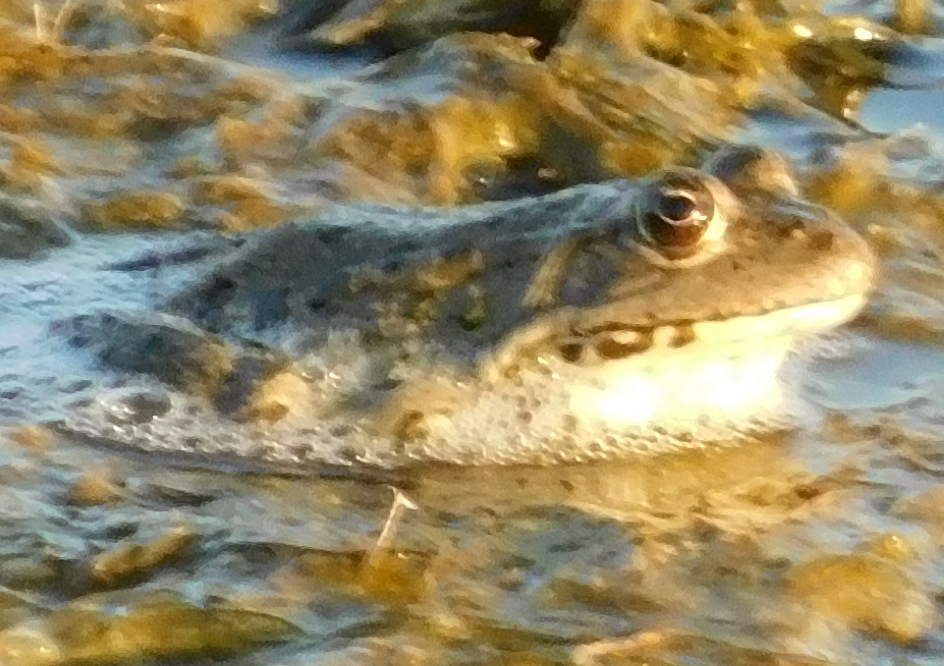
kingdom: Animalia
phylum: Chordata
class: Amphibia
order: Anura
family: Ranidae
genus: Pelophylax
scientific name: Pelophylax ridibundus
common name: Marsh frog
